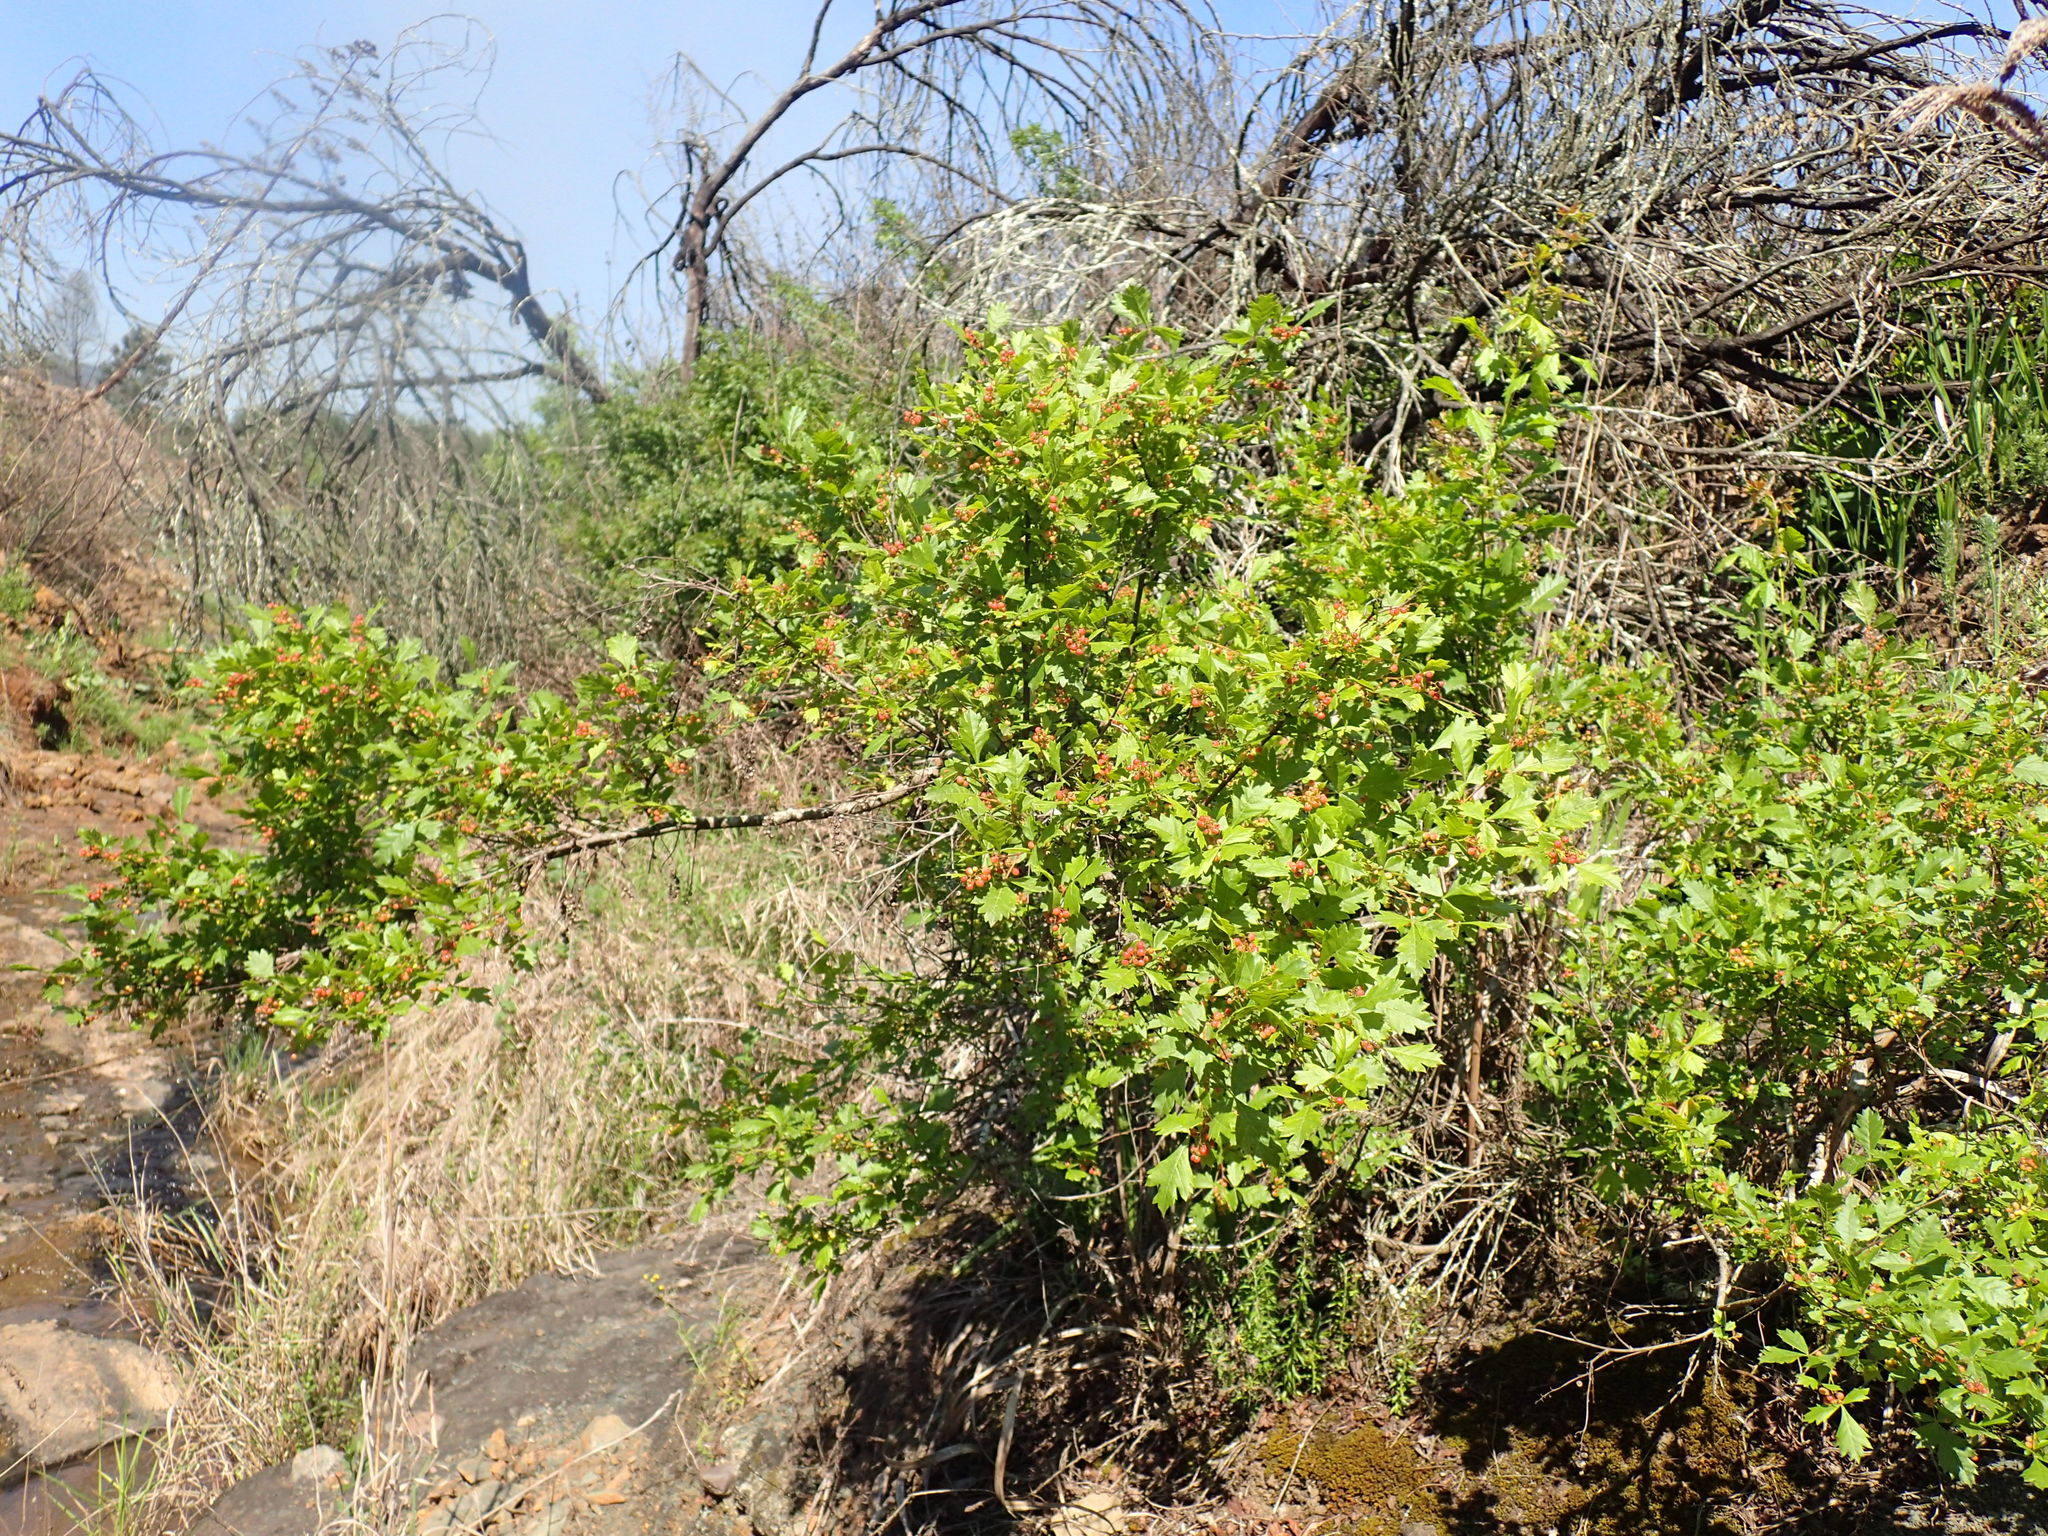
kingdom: Plantae
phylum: Tracheophyta
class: Magnoliopsida
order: Sapindales
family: Anacardiaceae
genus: Searsia
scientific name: Searsia dentata
